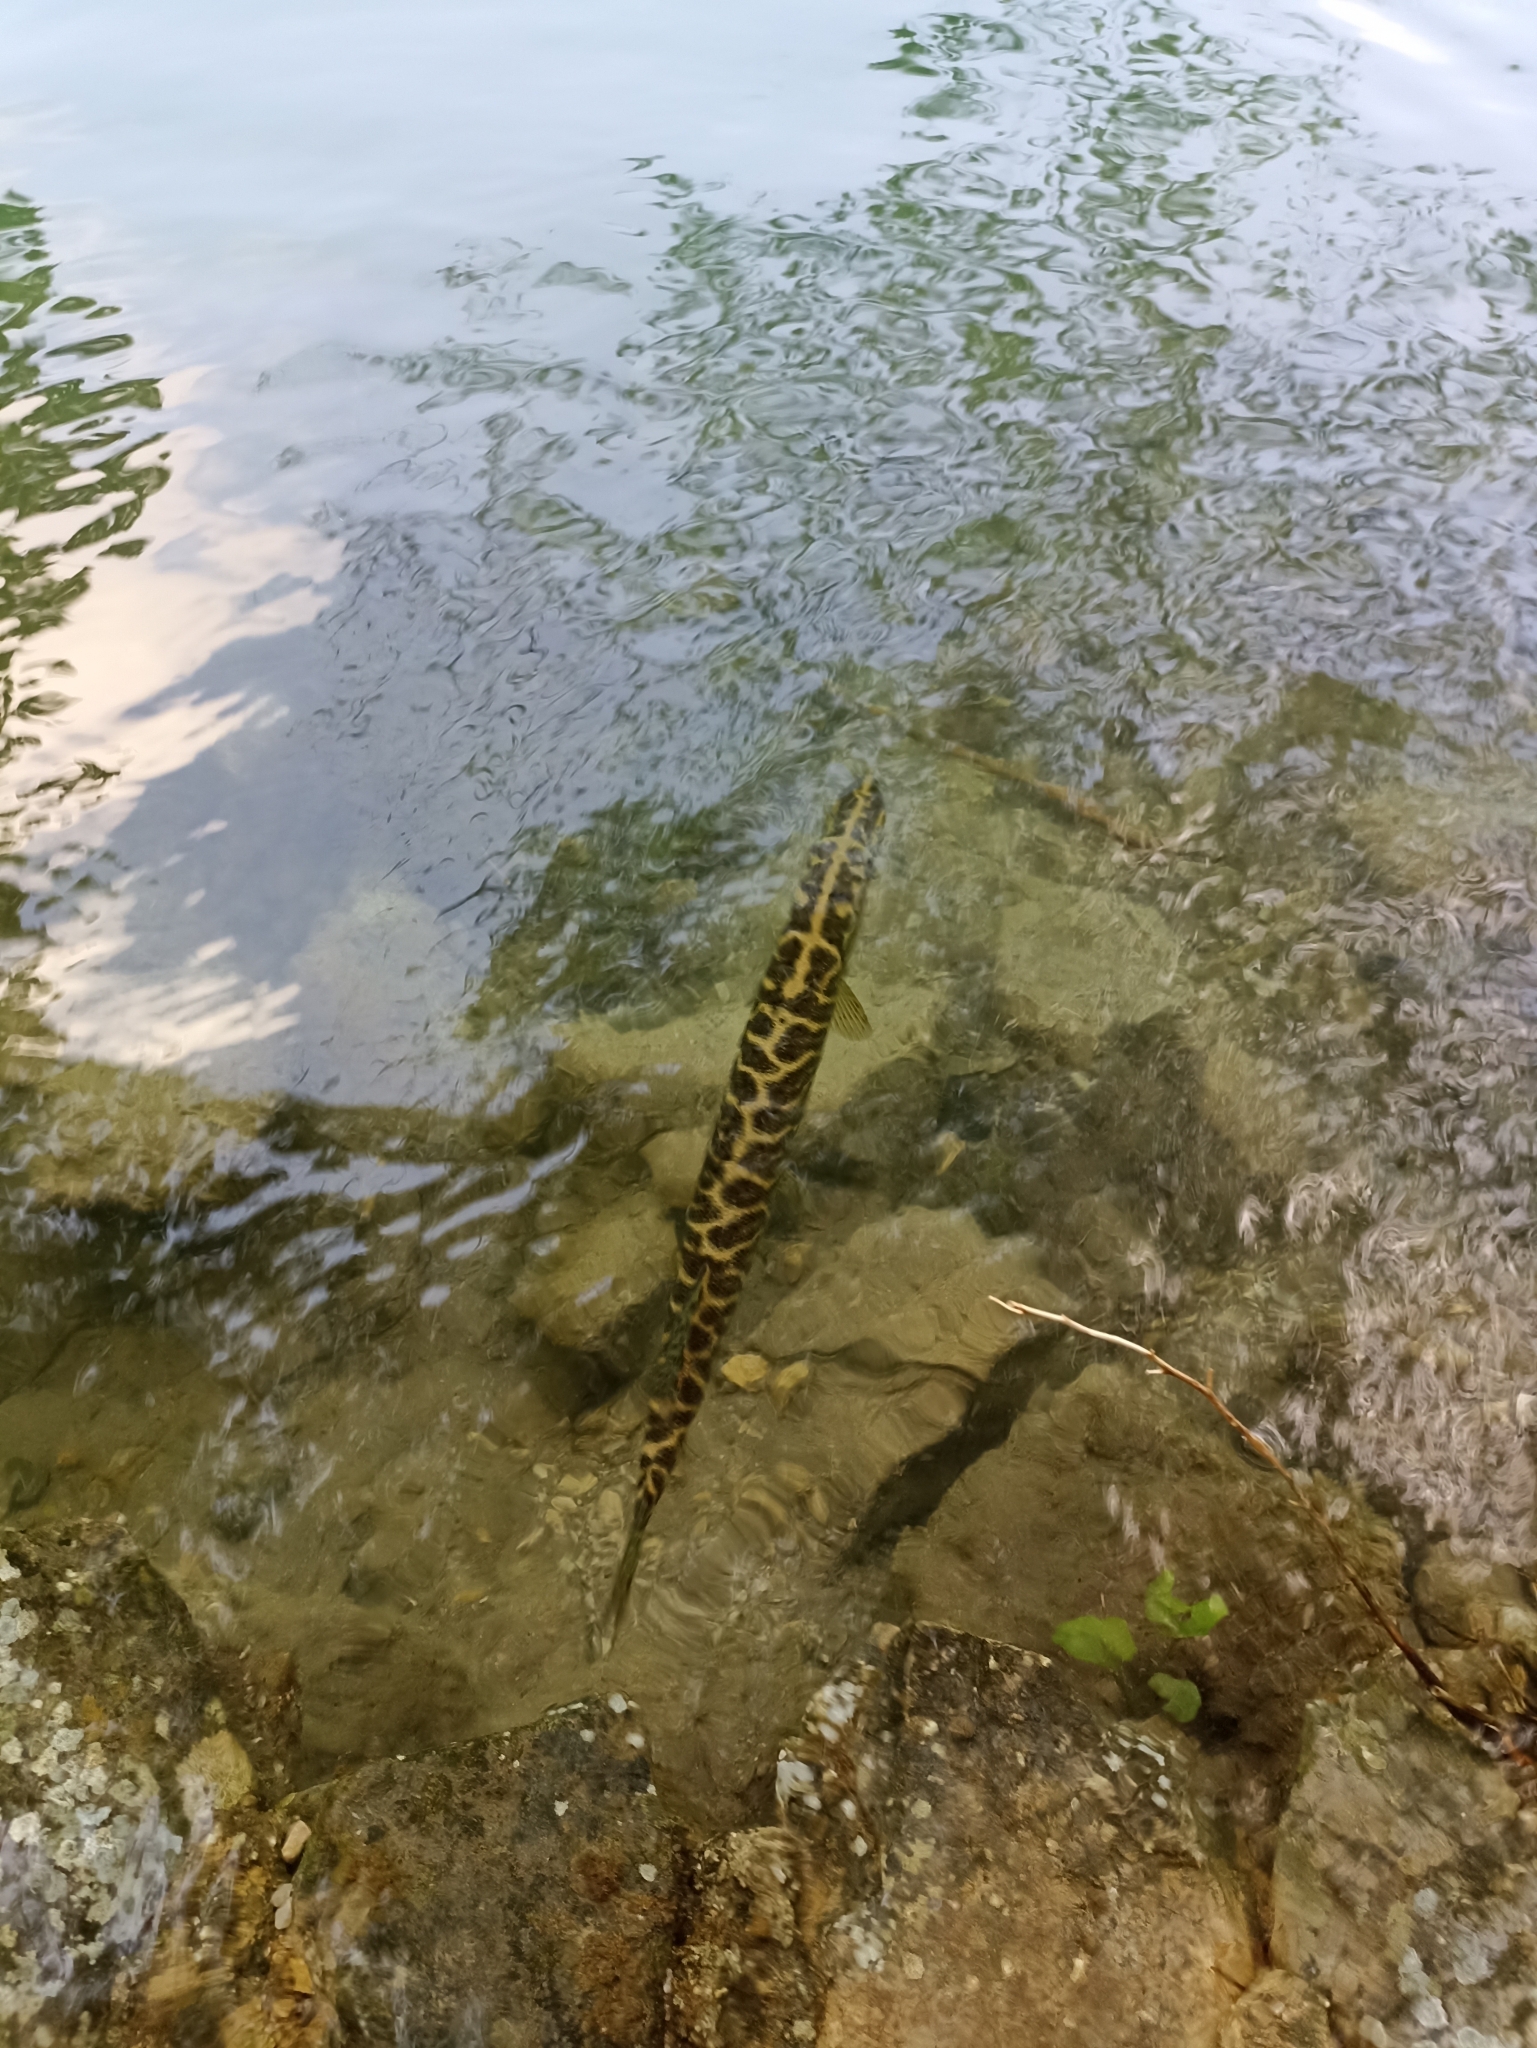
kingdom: Animalia
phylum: Chordata
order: Esociformes
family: Esocidae
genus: Esox
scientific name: Esox lucius
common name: Northern pike
